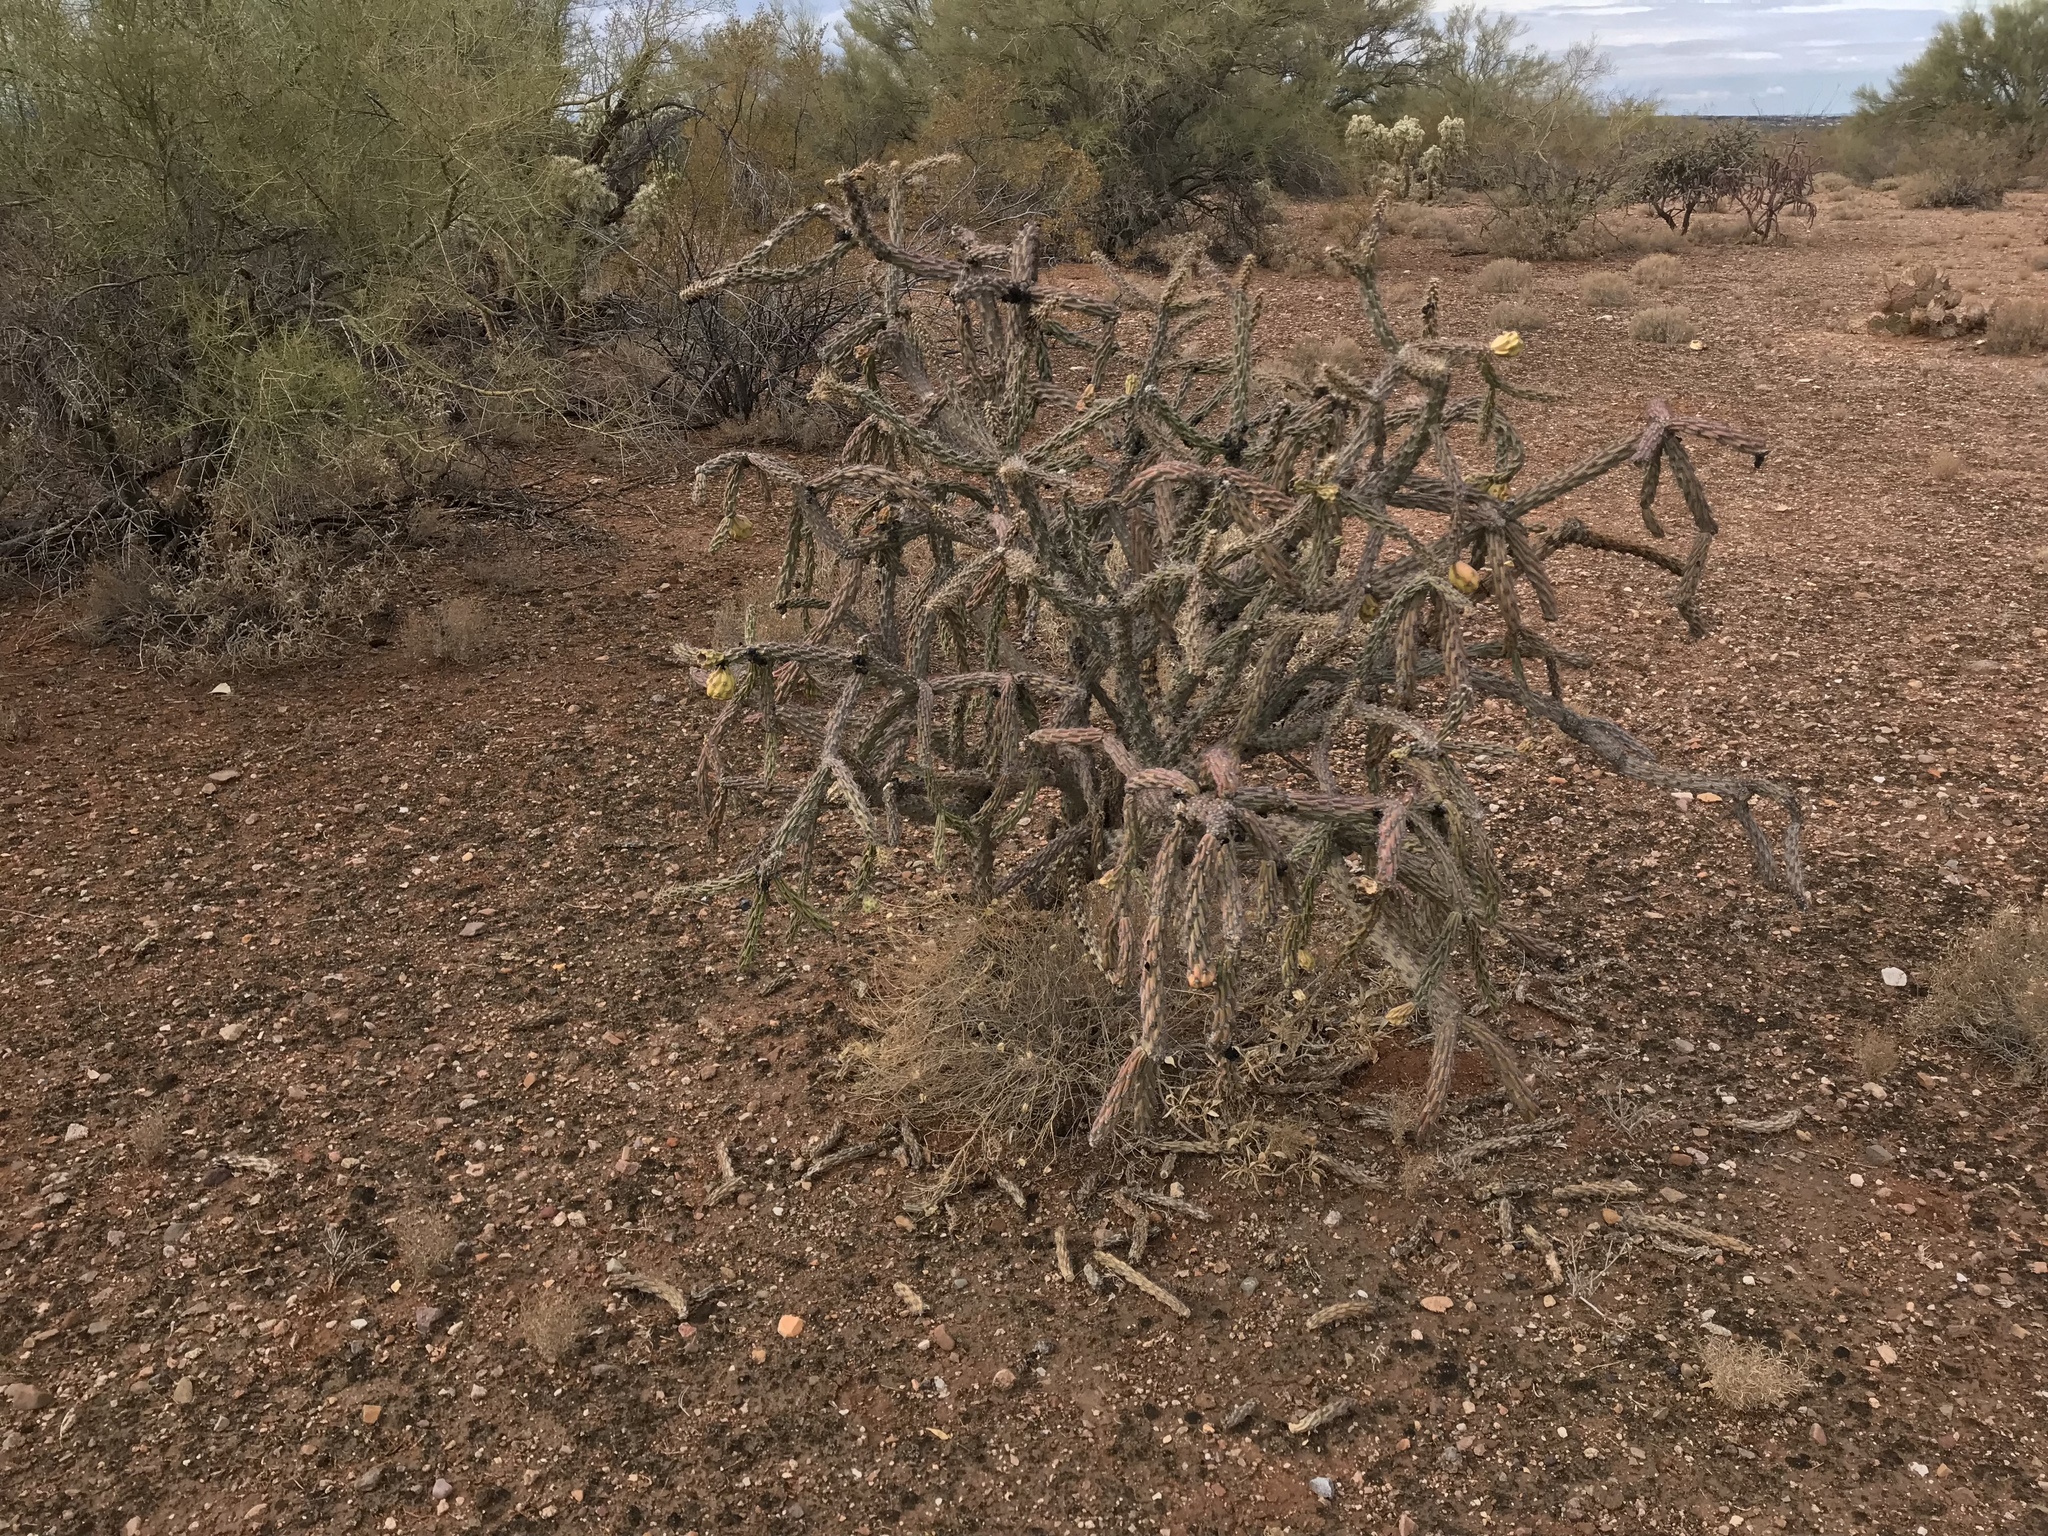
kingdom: Plantae
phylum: Tracheophyta
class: Magnoliopsida
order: Caryophyllales
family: Cactaceae
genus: Cylindropuntia
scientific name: Cylindropuntia thurberi
